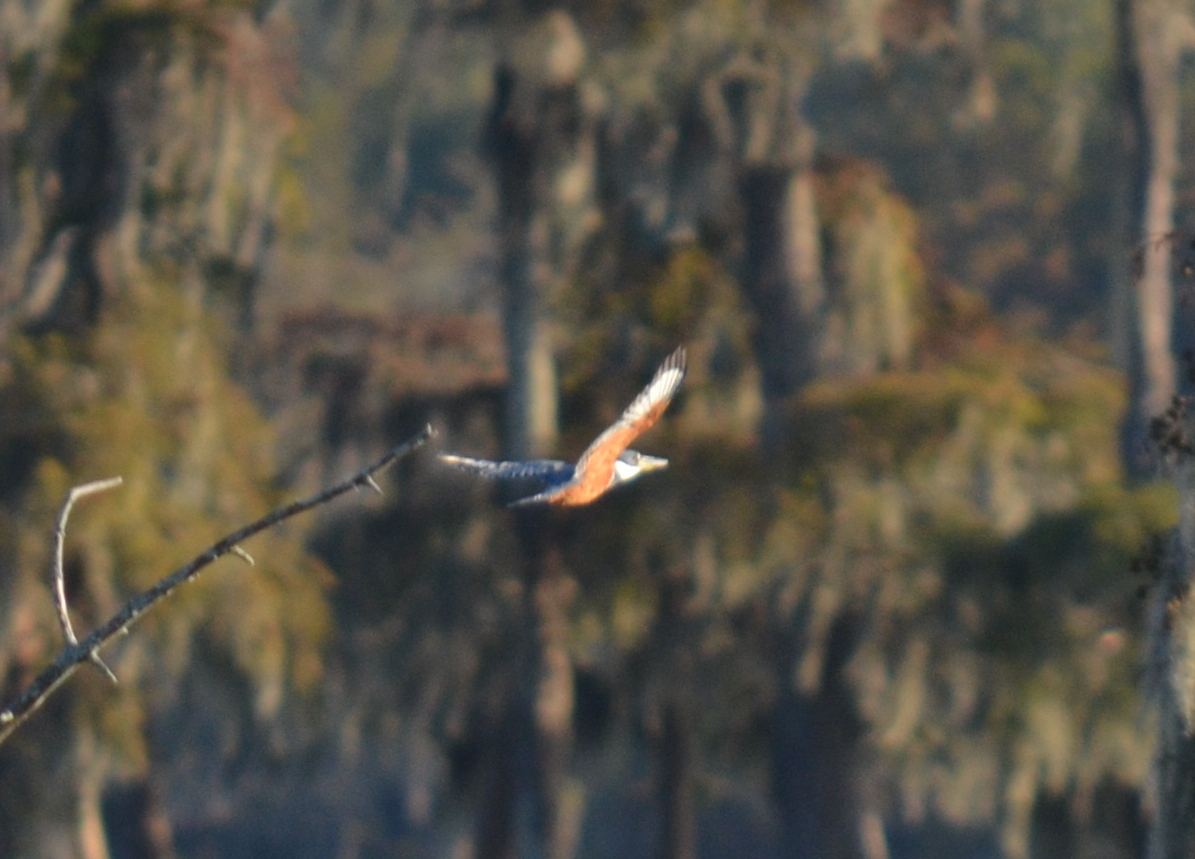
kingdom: Animalia
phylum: Chordata
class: Aves
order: Coraciiformes
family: Alcedinidae
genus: Megaceryle
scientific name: Megaceryle torquata
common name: Ringed kingfisher
